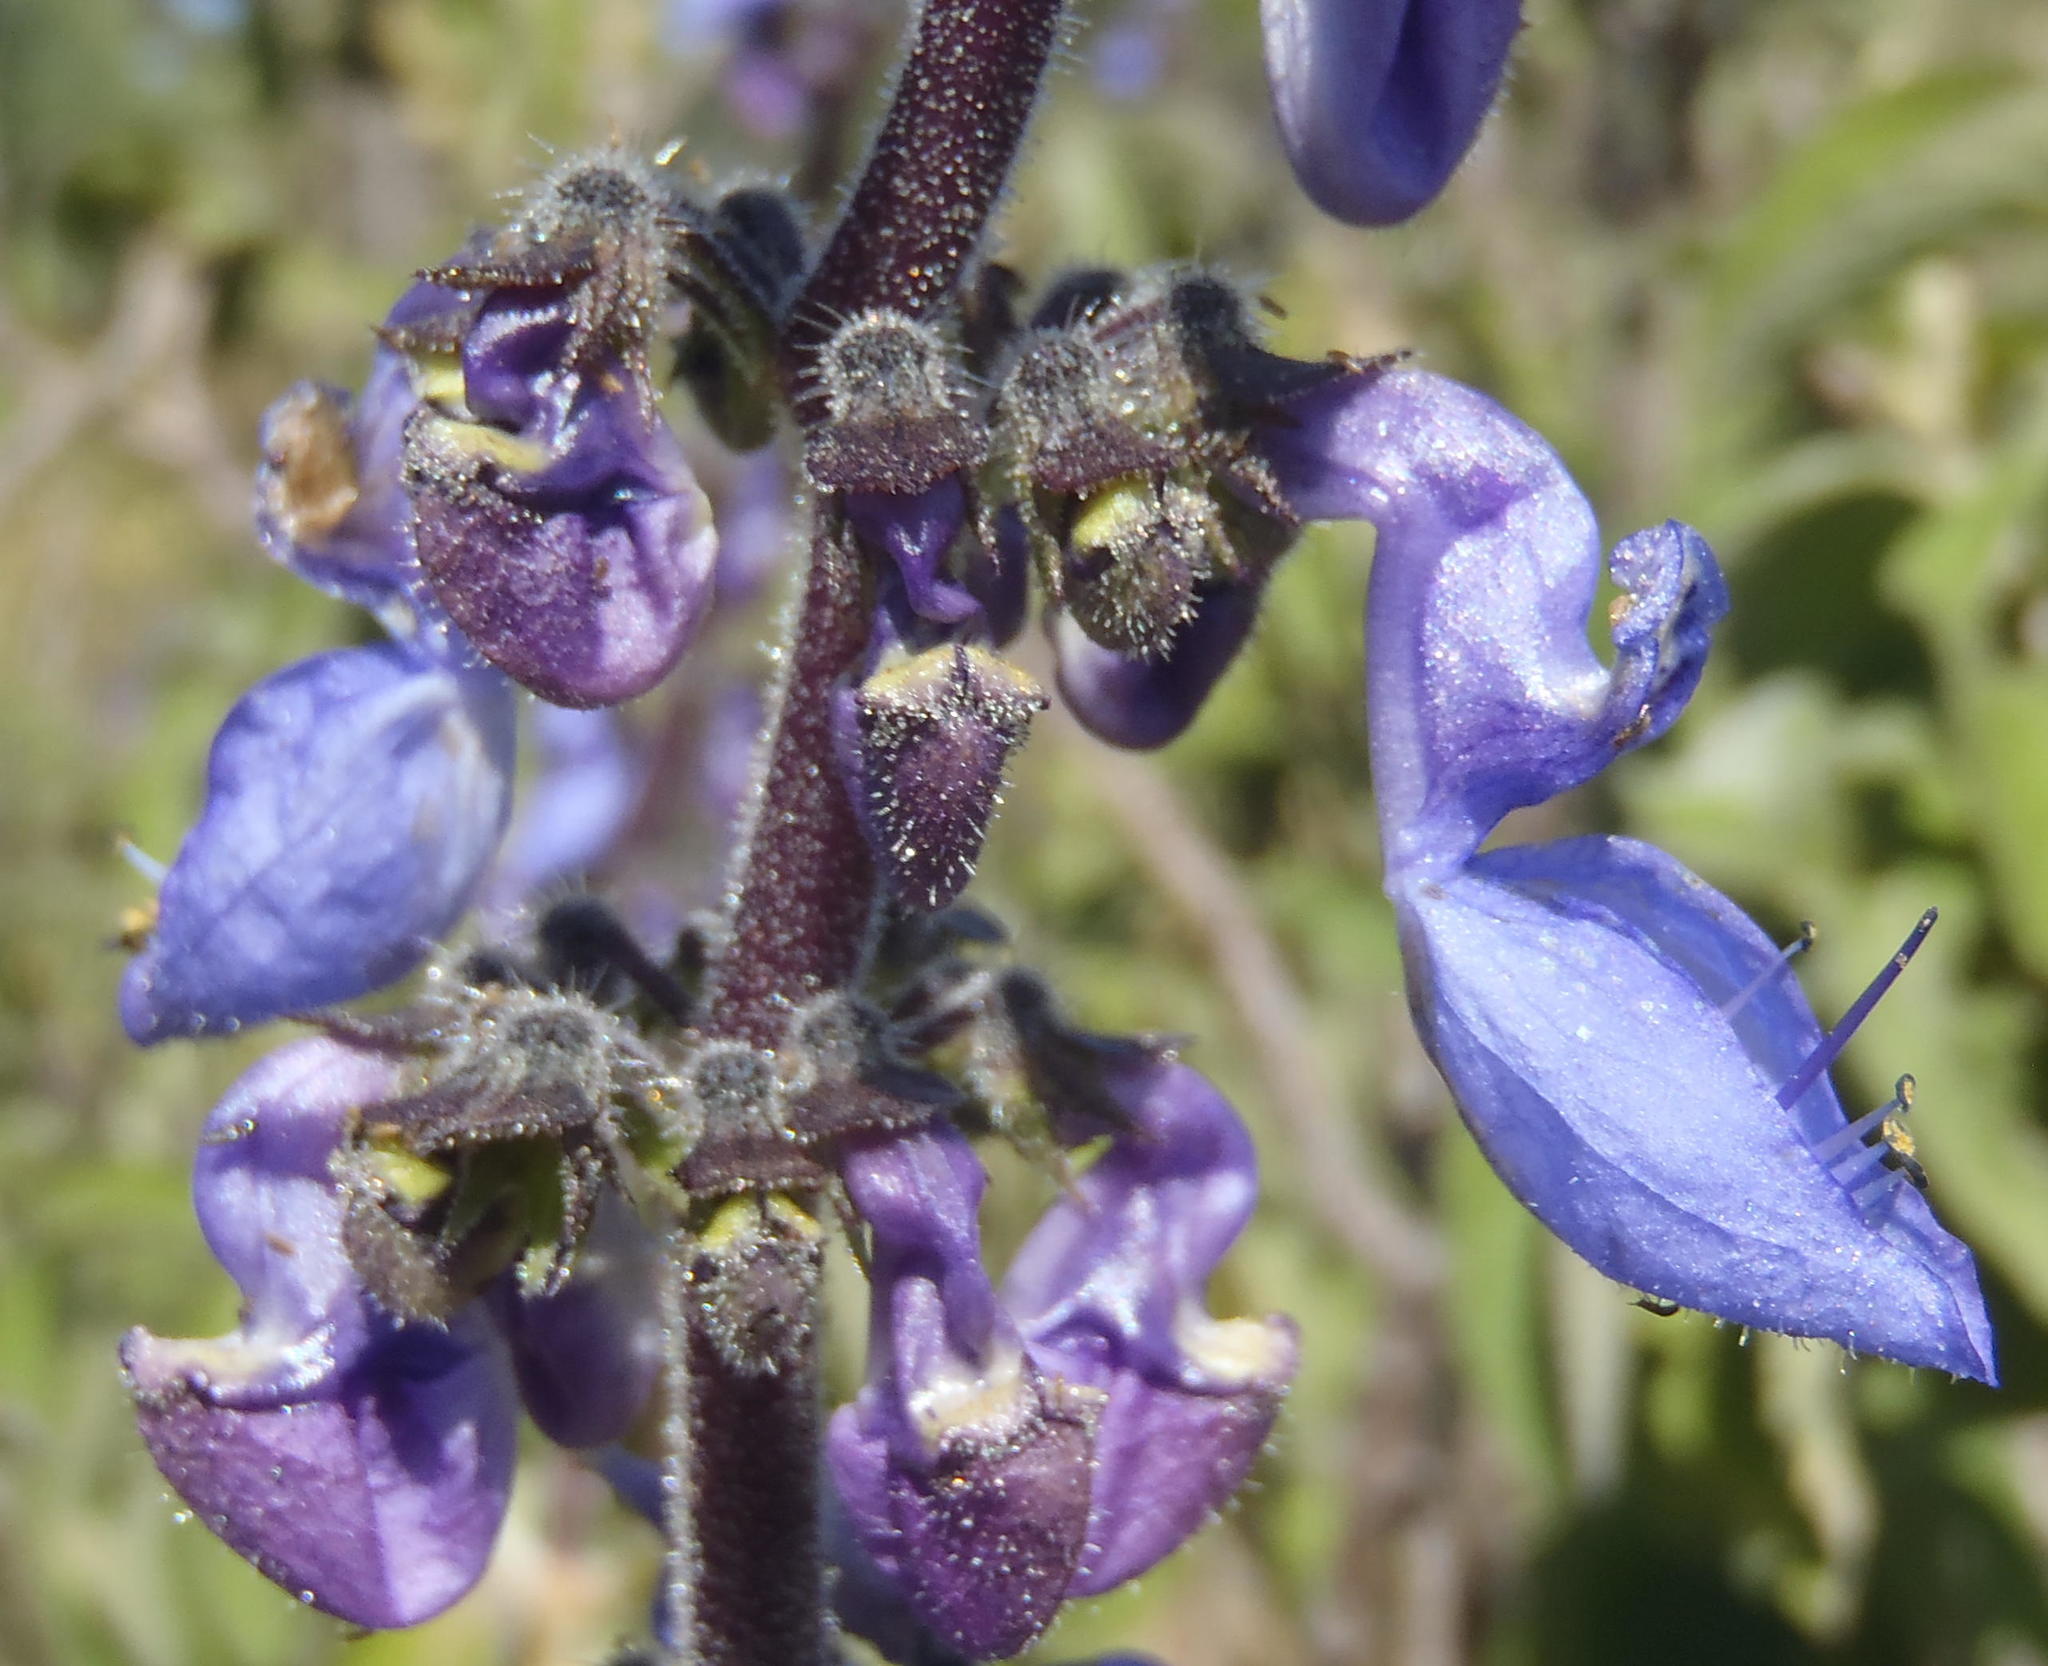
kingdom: Plantae
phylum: Tracheophyta
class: Magnoliopsida
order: Lamiales
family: Lamiaceae
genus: Coleus
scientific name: Coleus barbatus
